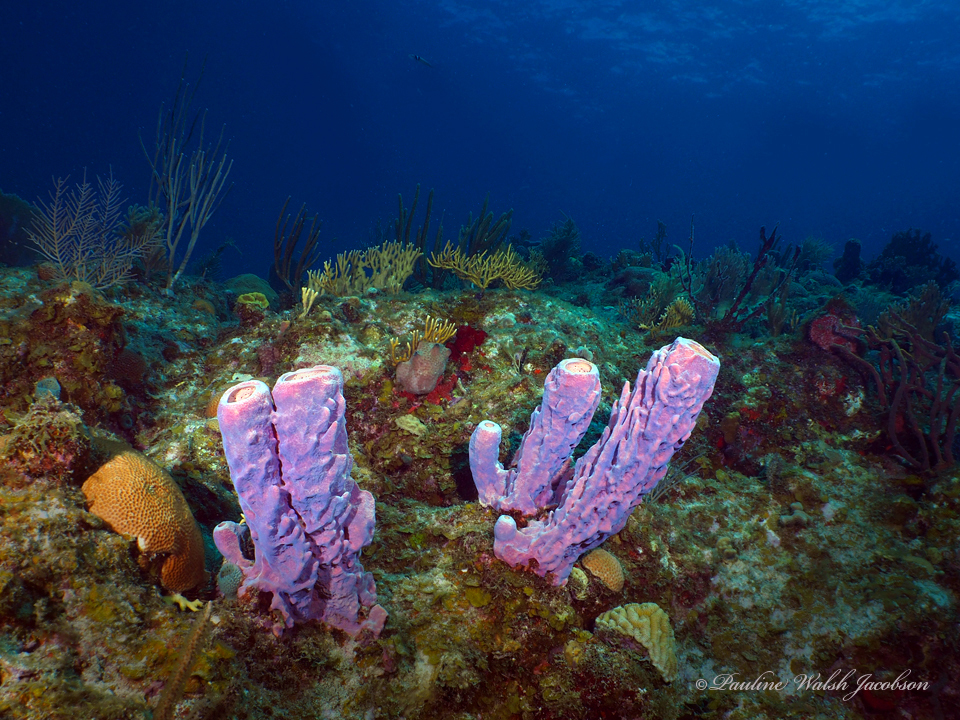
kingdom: Animalia
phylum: Porifera
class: Demospongiae
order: Verongiida
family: Aplysinidae
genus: Aplysina
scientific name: Aplysina archeri
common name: Stove-pipe sponge
